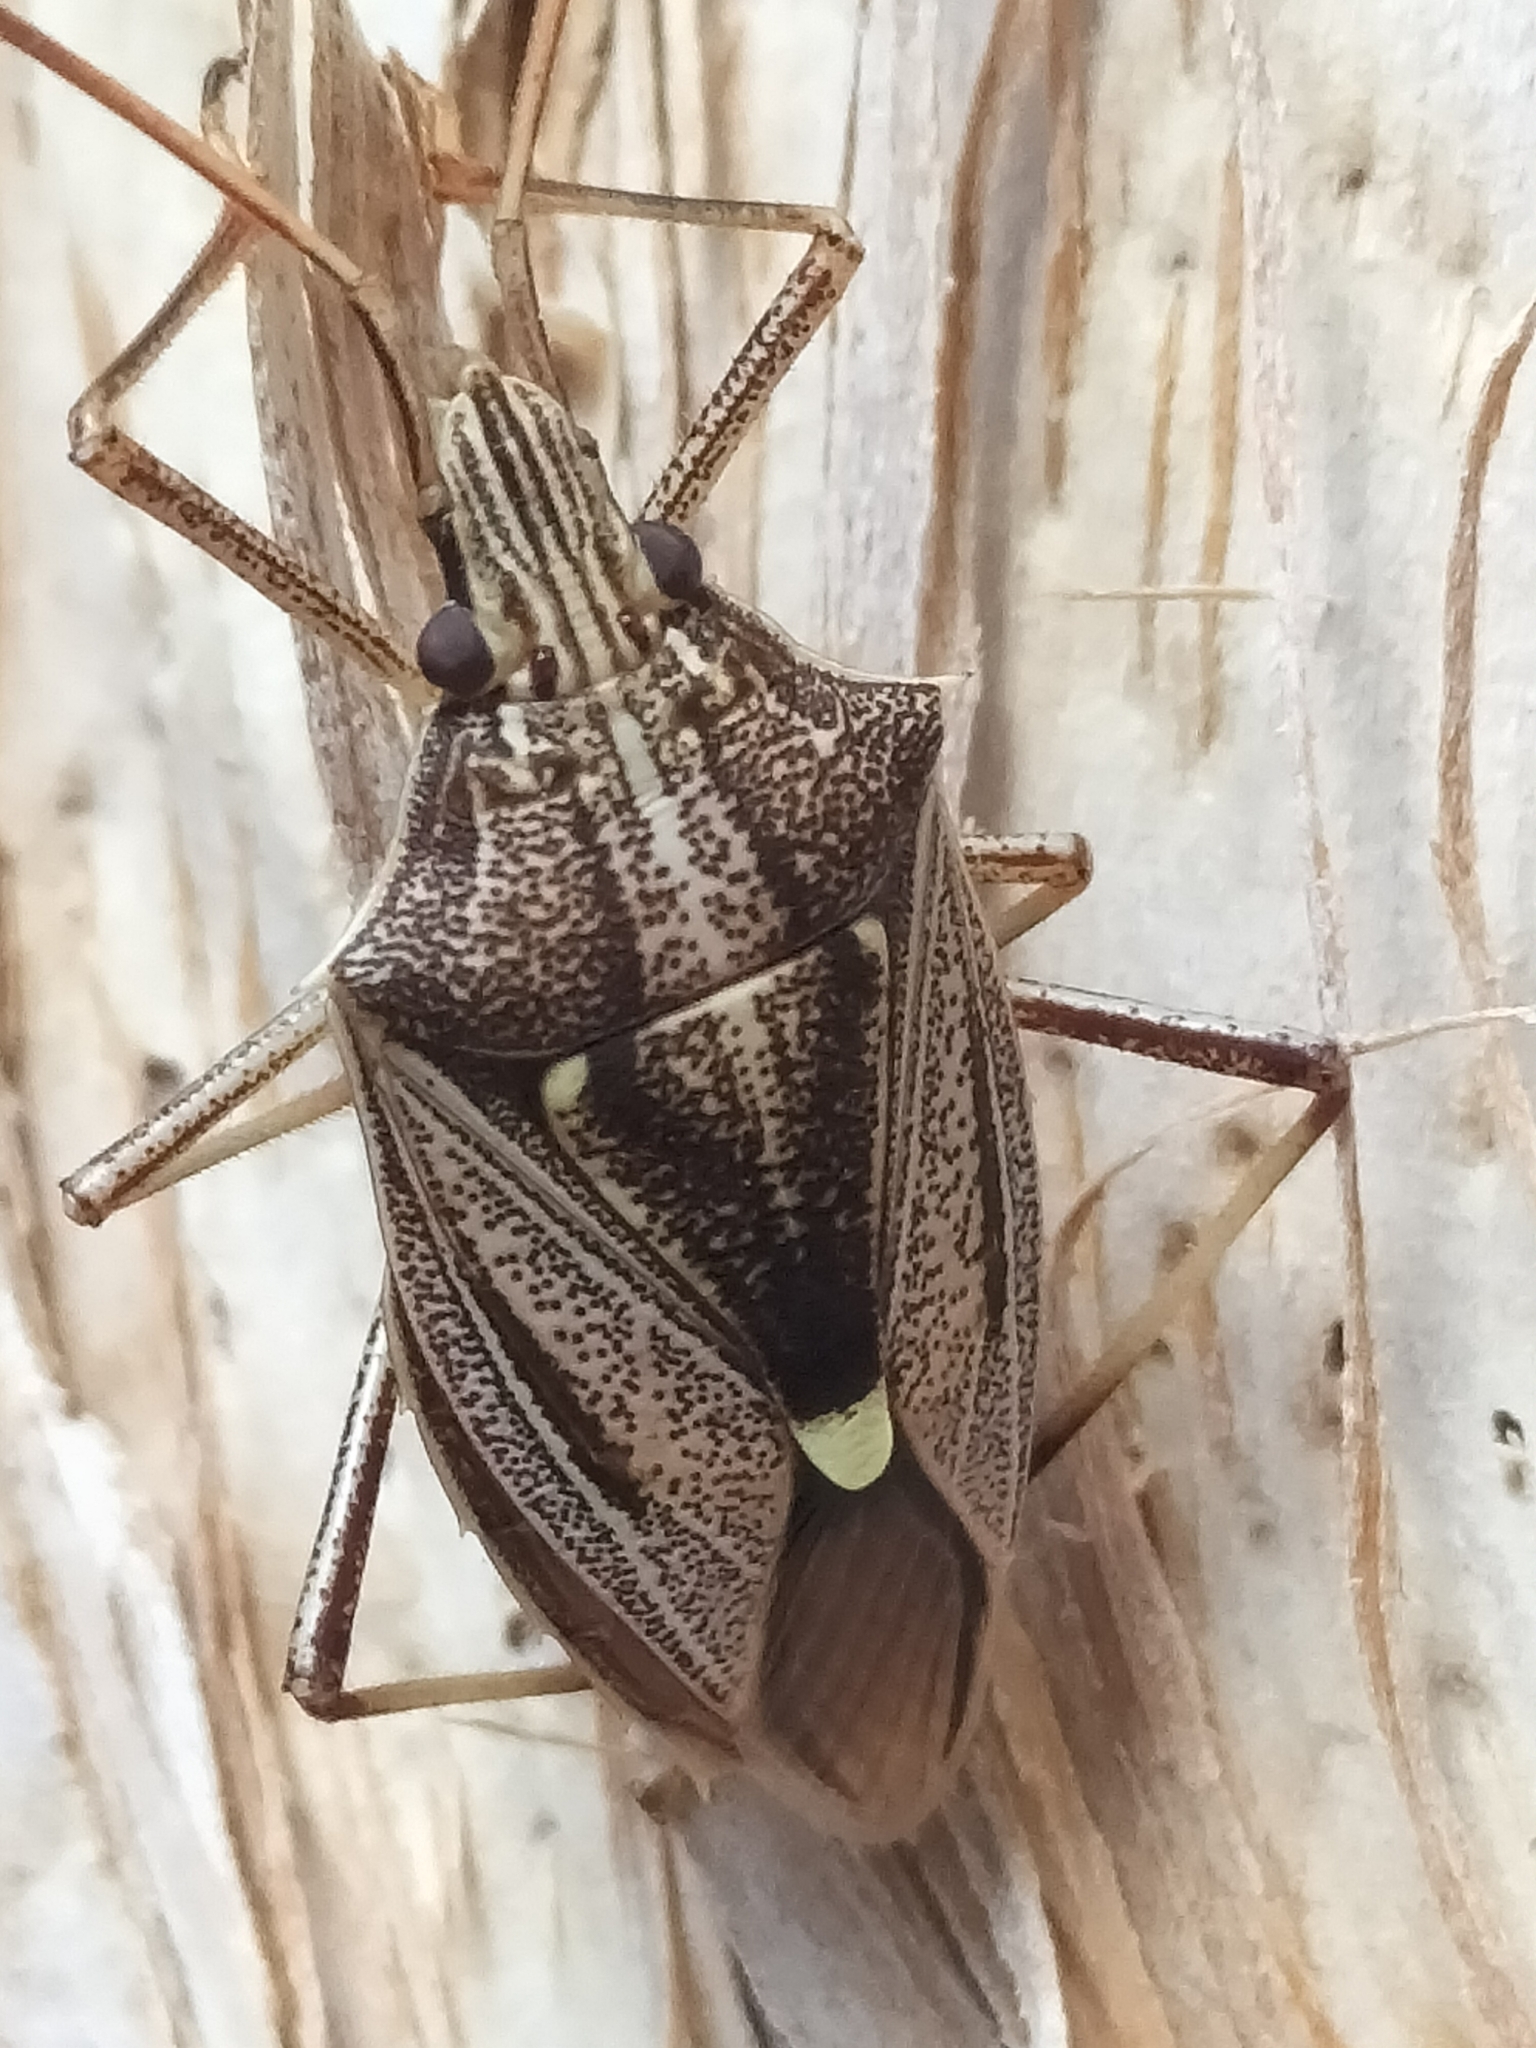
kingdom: Animalia
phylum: Arthropoda
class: Insecta
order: Hemiptera
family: Pentatomidae
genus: Poecilometis
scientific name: Poecilometis
